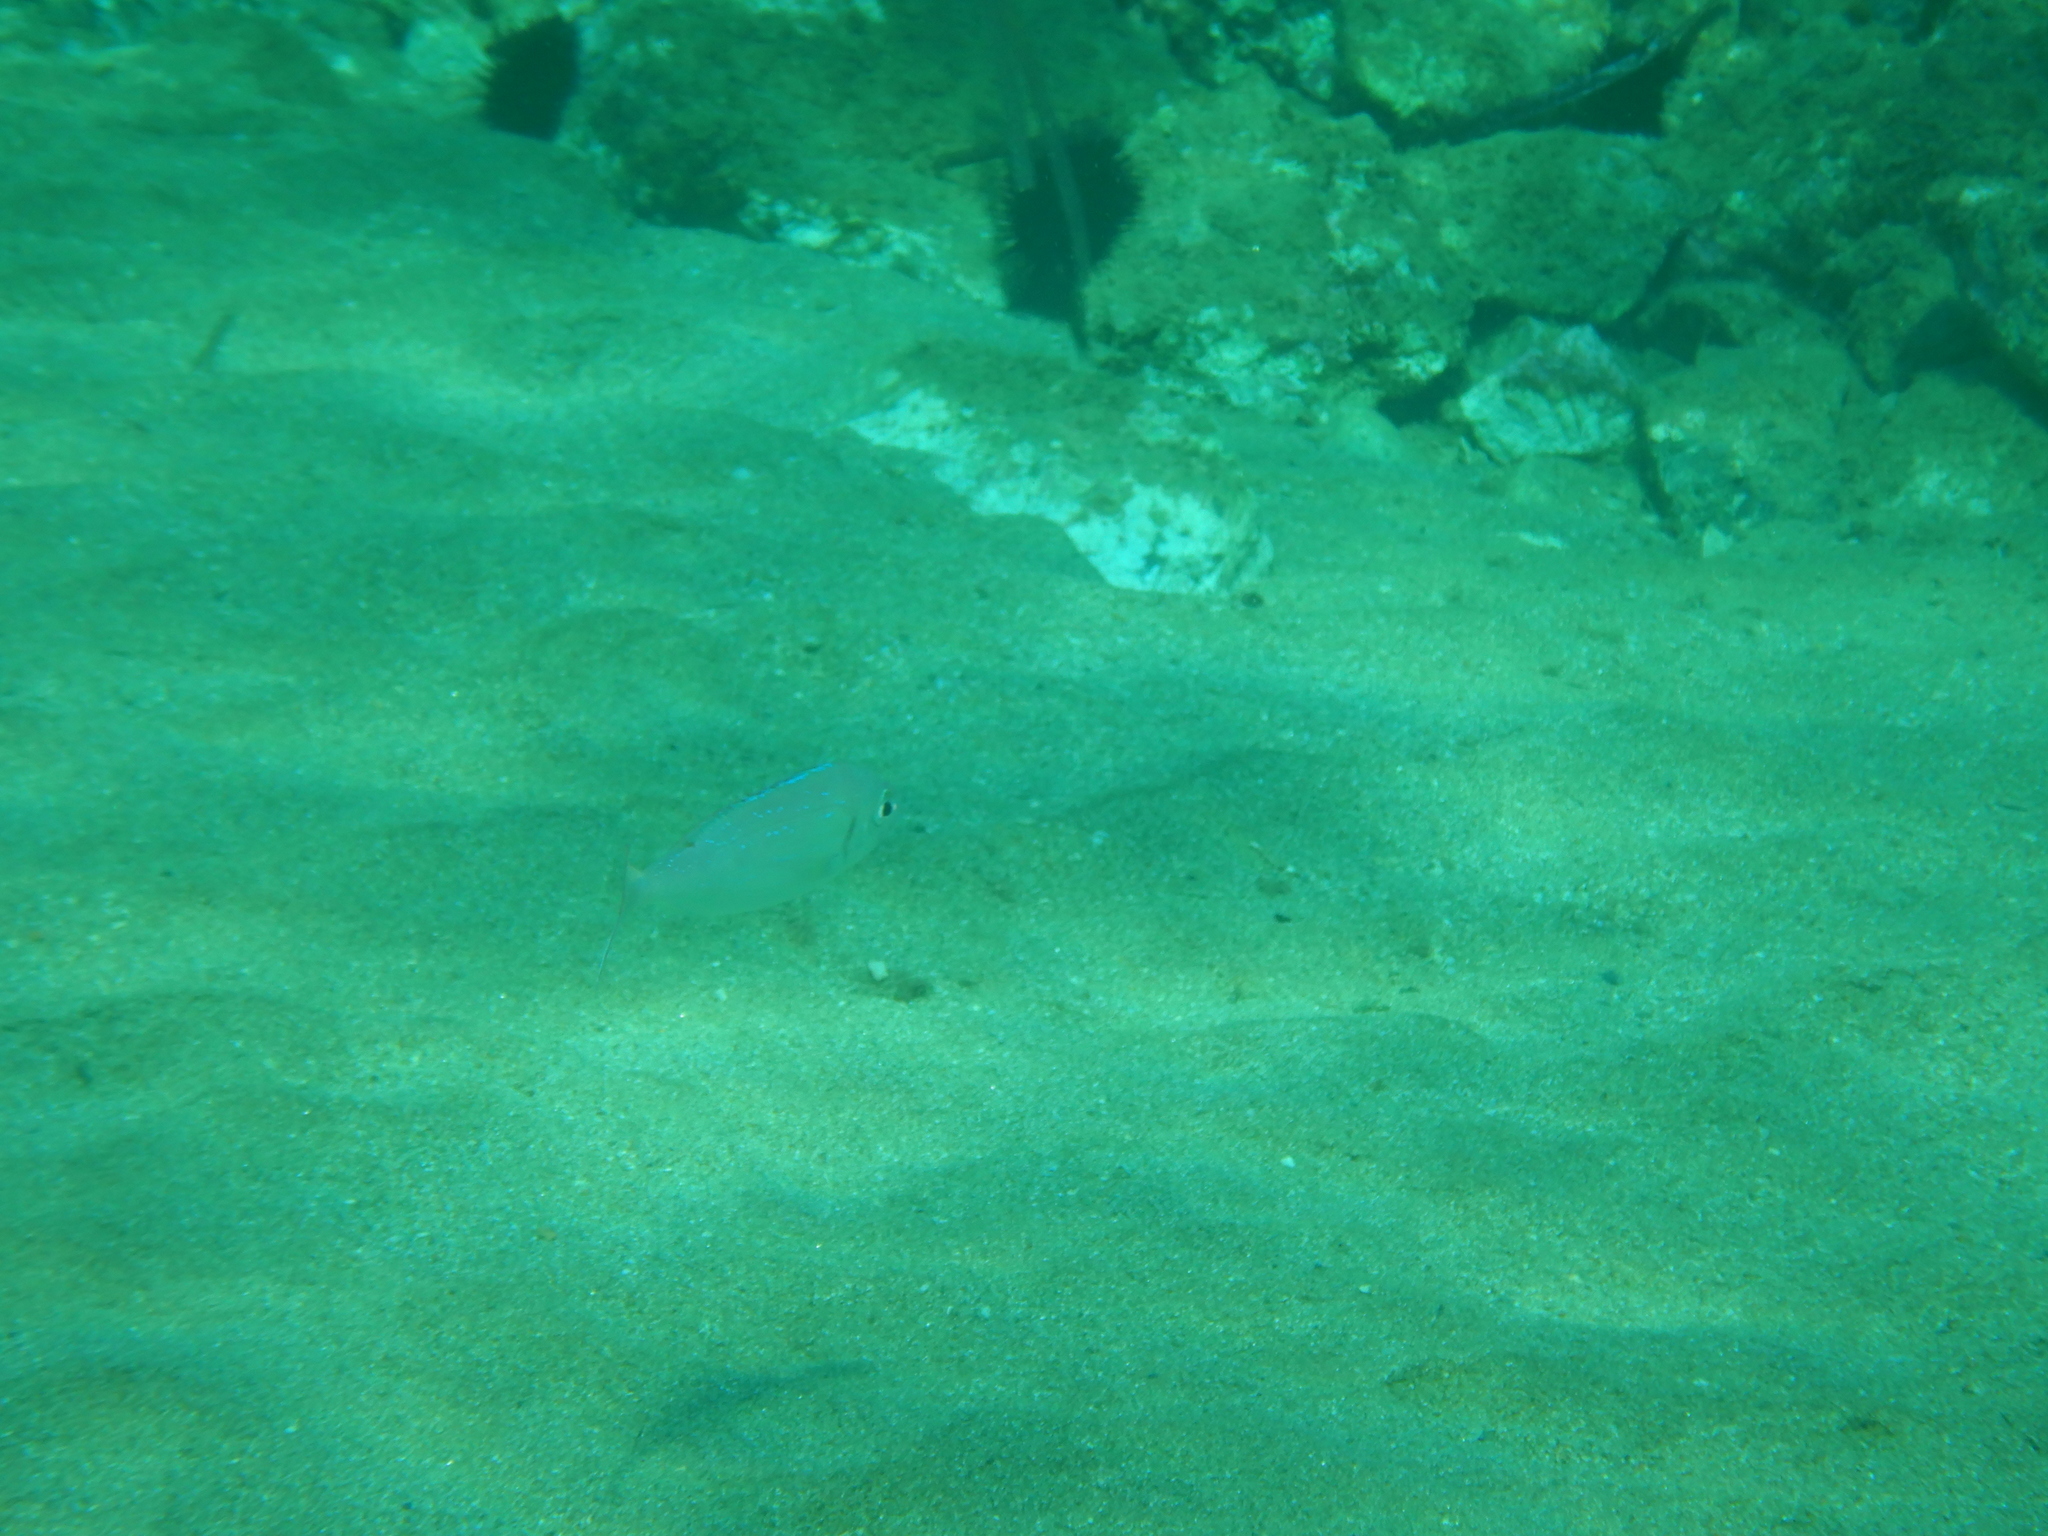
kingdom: Animalia
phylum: Chordata
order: Perciformes
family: Sparidae
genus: Pagellus
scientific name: Pagellus erythrinus
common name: Pandora
